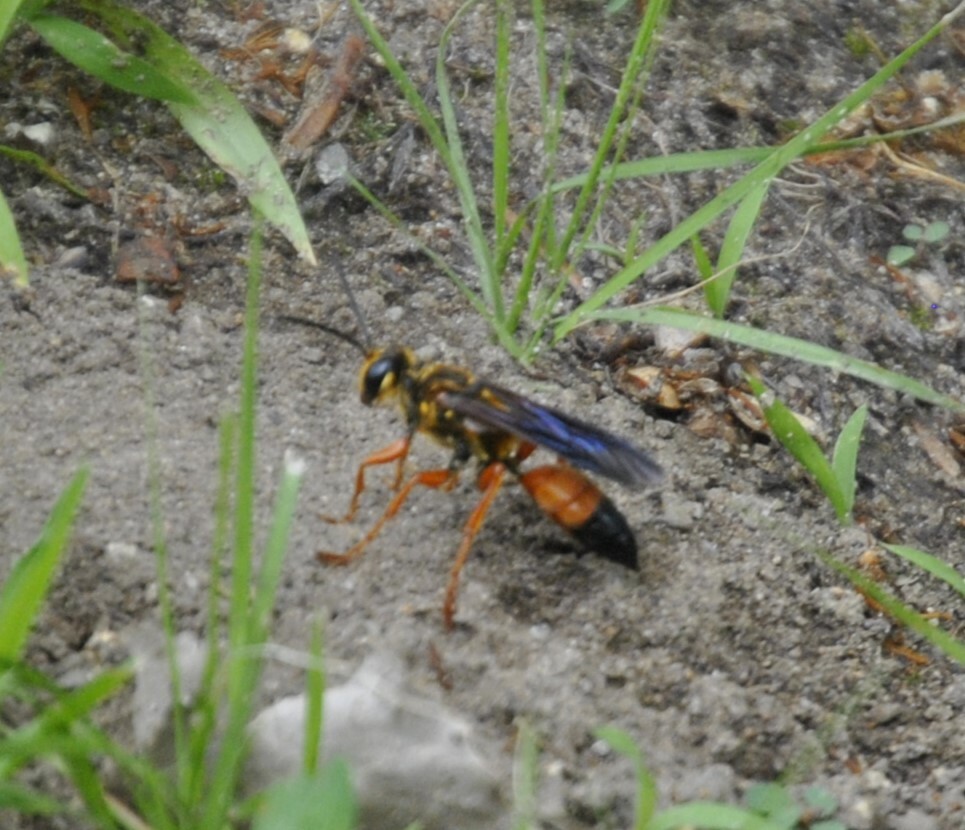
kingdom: Animalia
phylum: Arthropoda
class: Insecta
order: Hymenoptera
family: Sphecidae
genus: Sphex
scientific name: Sphex ichneumoneus
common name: Great golden digger wasp
